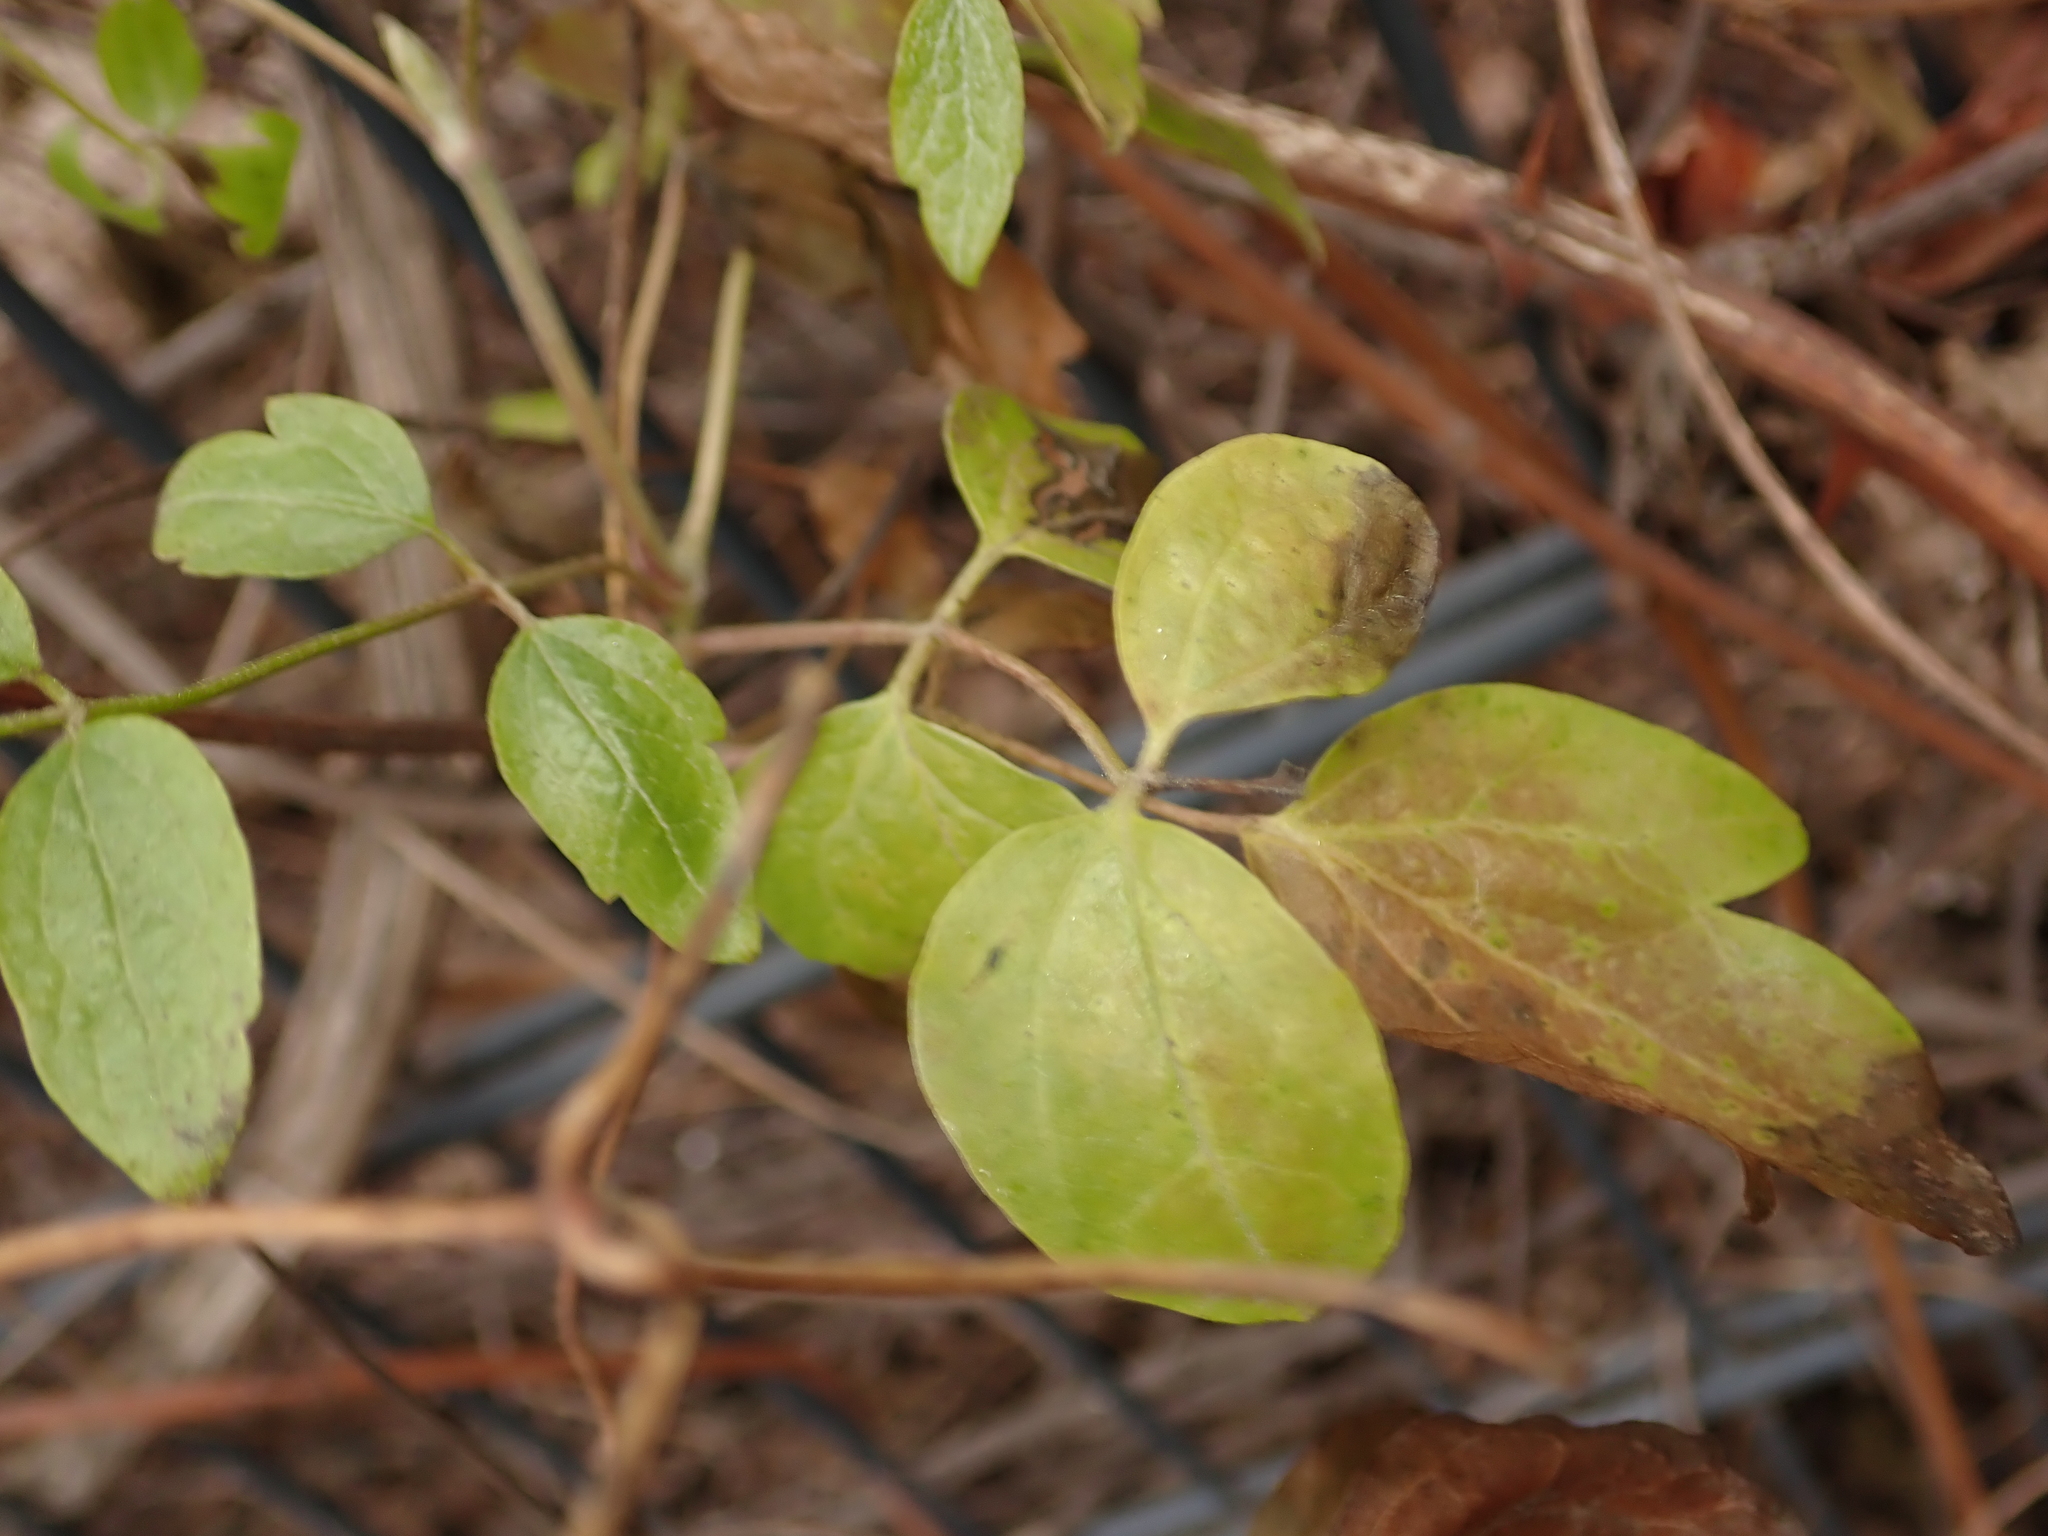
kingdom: Plantae
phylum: Tracheophyta
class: Magnoliopsida
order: Ranunculales
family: Ranunculaceae
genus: Clematis
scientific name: Clematis vitalba
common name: Evergreen clematis
